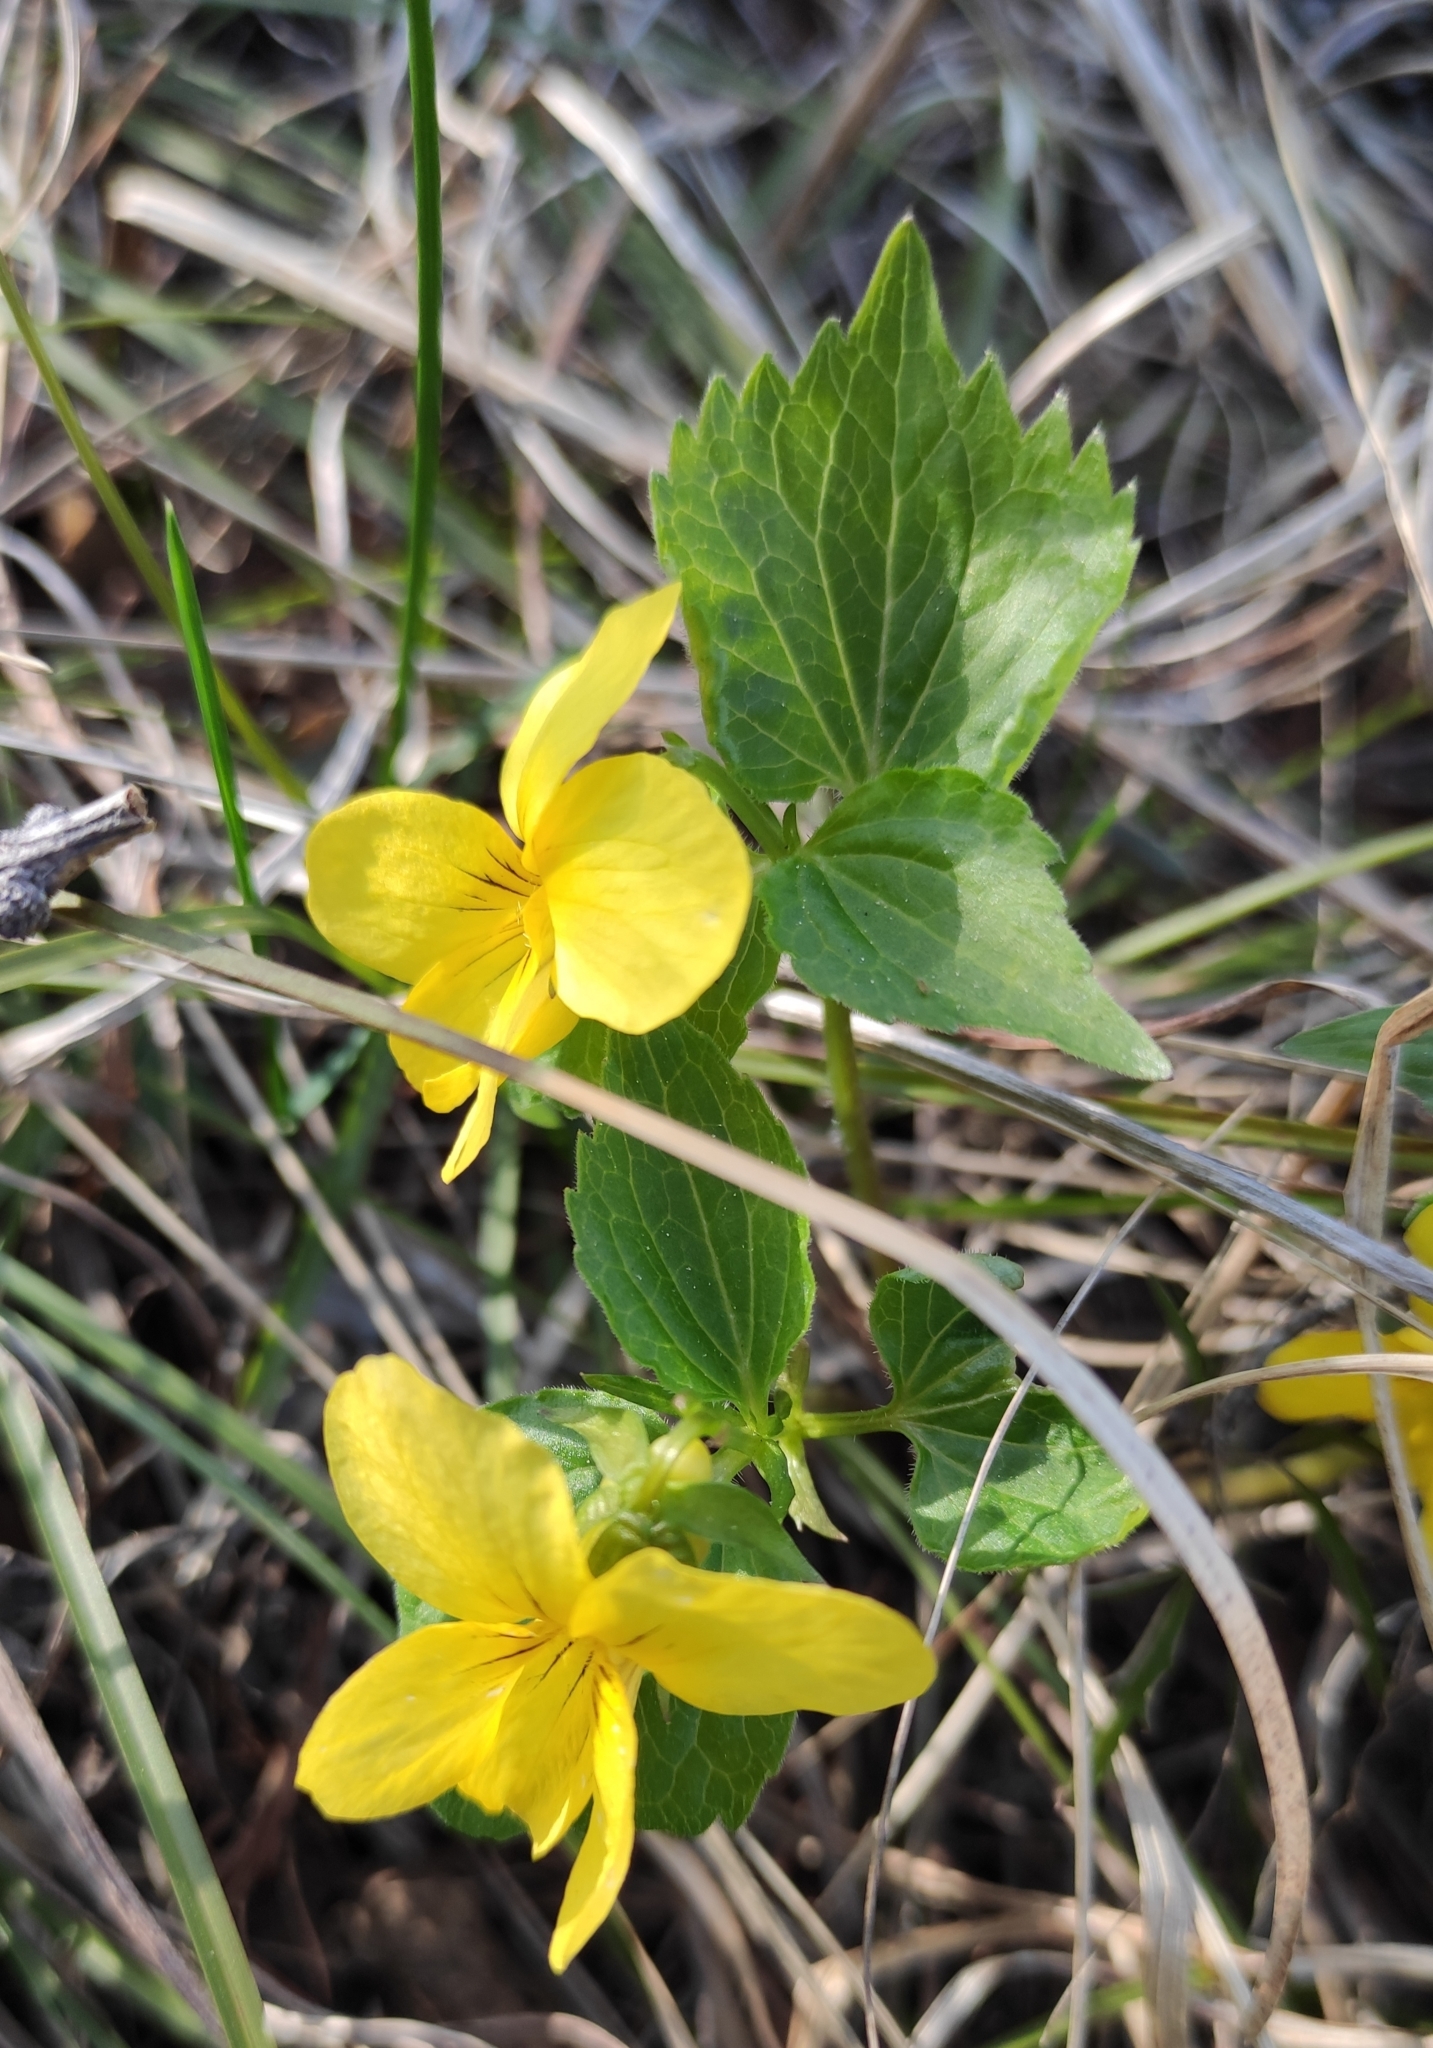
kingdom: Plantae
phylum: Tracheophyta
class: Magnoliopsida
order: Malpighiales
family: Violaceae
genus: Viola
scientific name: Viola uniflora
